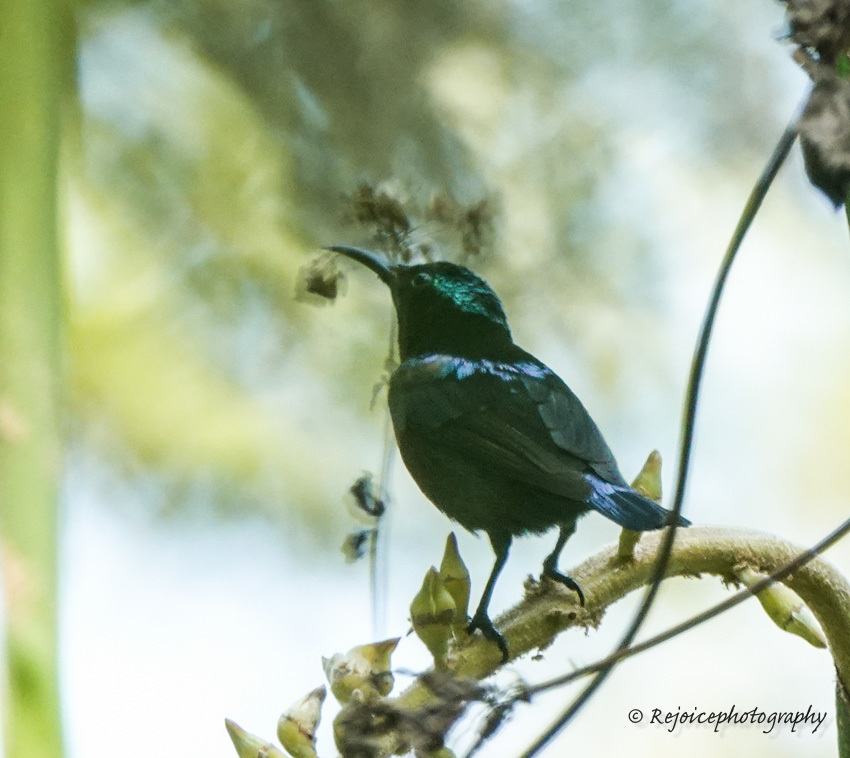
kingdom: Animalia
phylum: Chordata
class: Aves
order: Passeriformes
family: Nectariniidae
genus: Leptocoma
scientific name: Leptocoma brasiliana
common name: Van hasselt's sunbird
